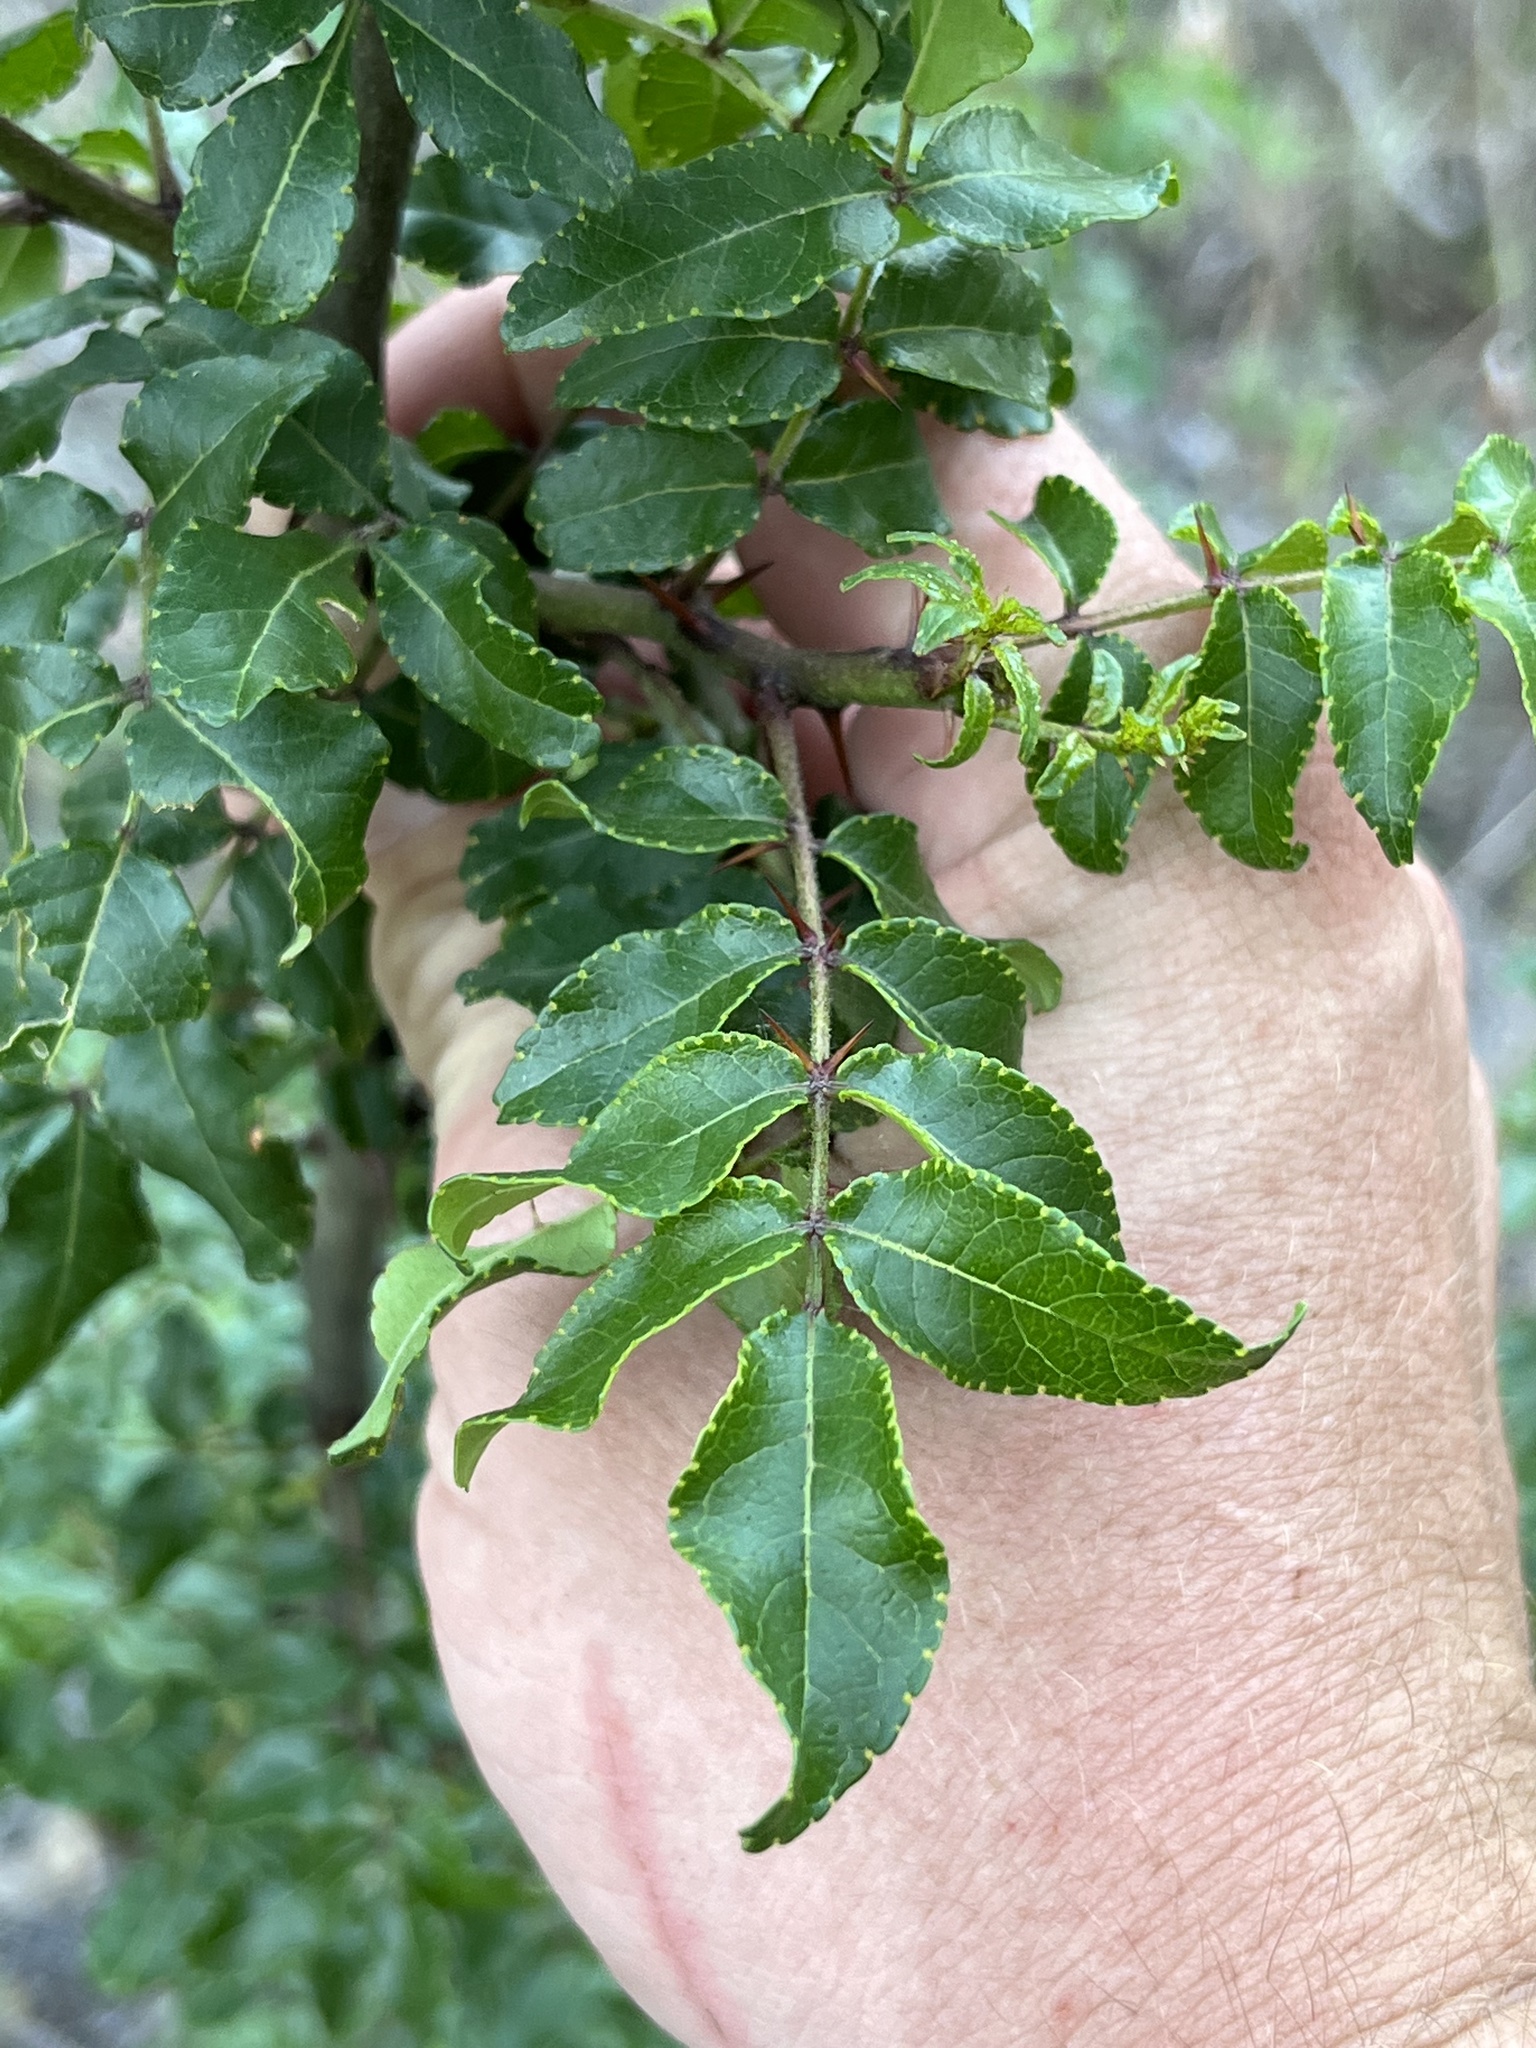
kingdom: Plantae
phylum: Tracheophyta
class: Magnoliopsida
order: Sapindales
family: Rutaceae
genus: Zanthoxylum
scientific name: Zanthoxylum clava-herculis
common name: Hercules'-club
